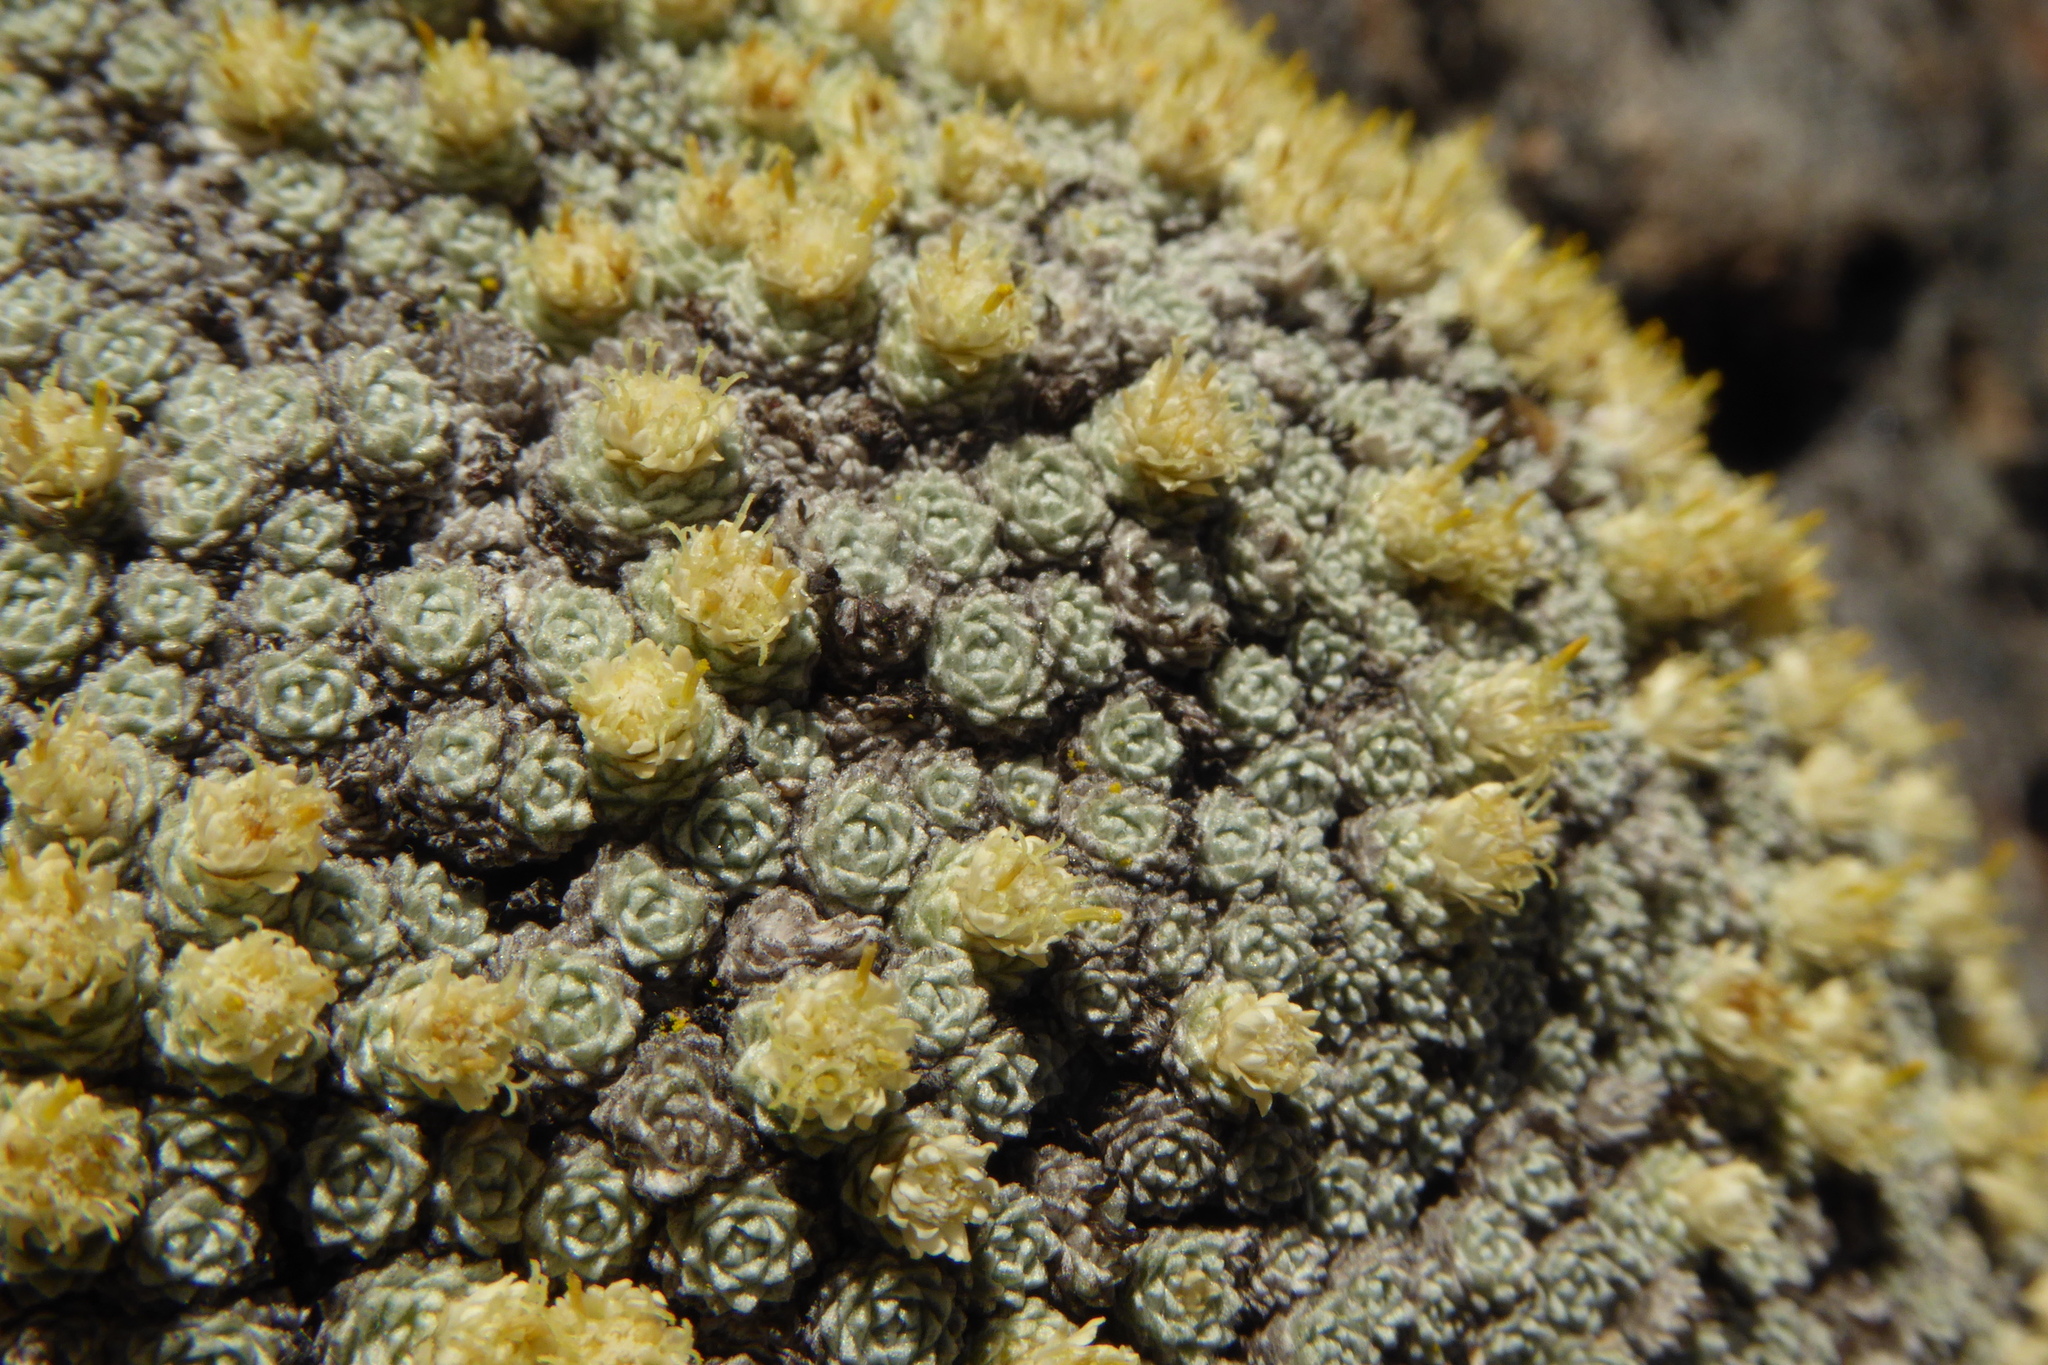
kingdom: Plantae
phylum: Tracheophyta
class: Magnoliopsida
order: Asterales
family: Asteraceae
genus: Raoulia
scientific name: Raoulia bryoides
